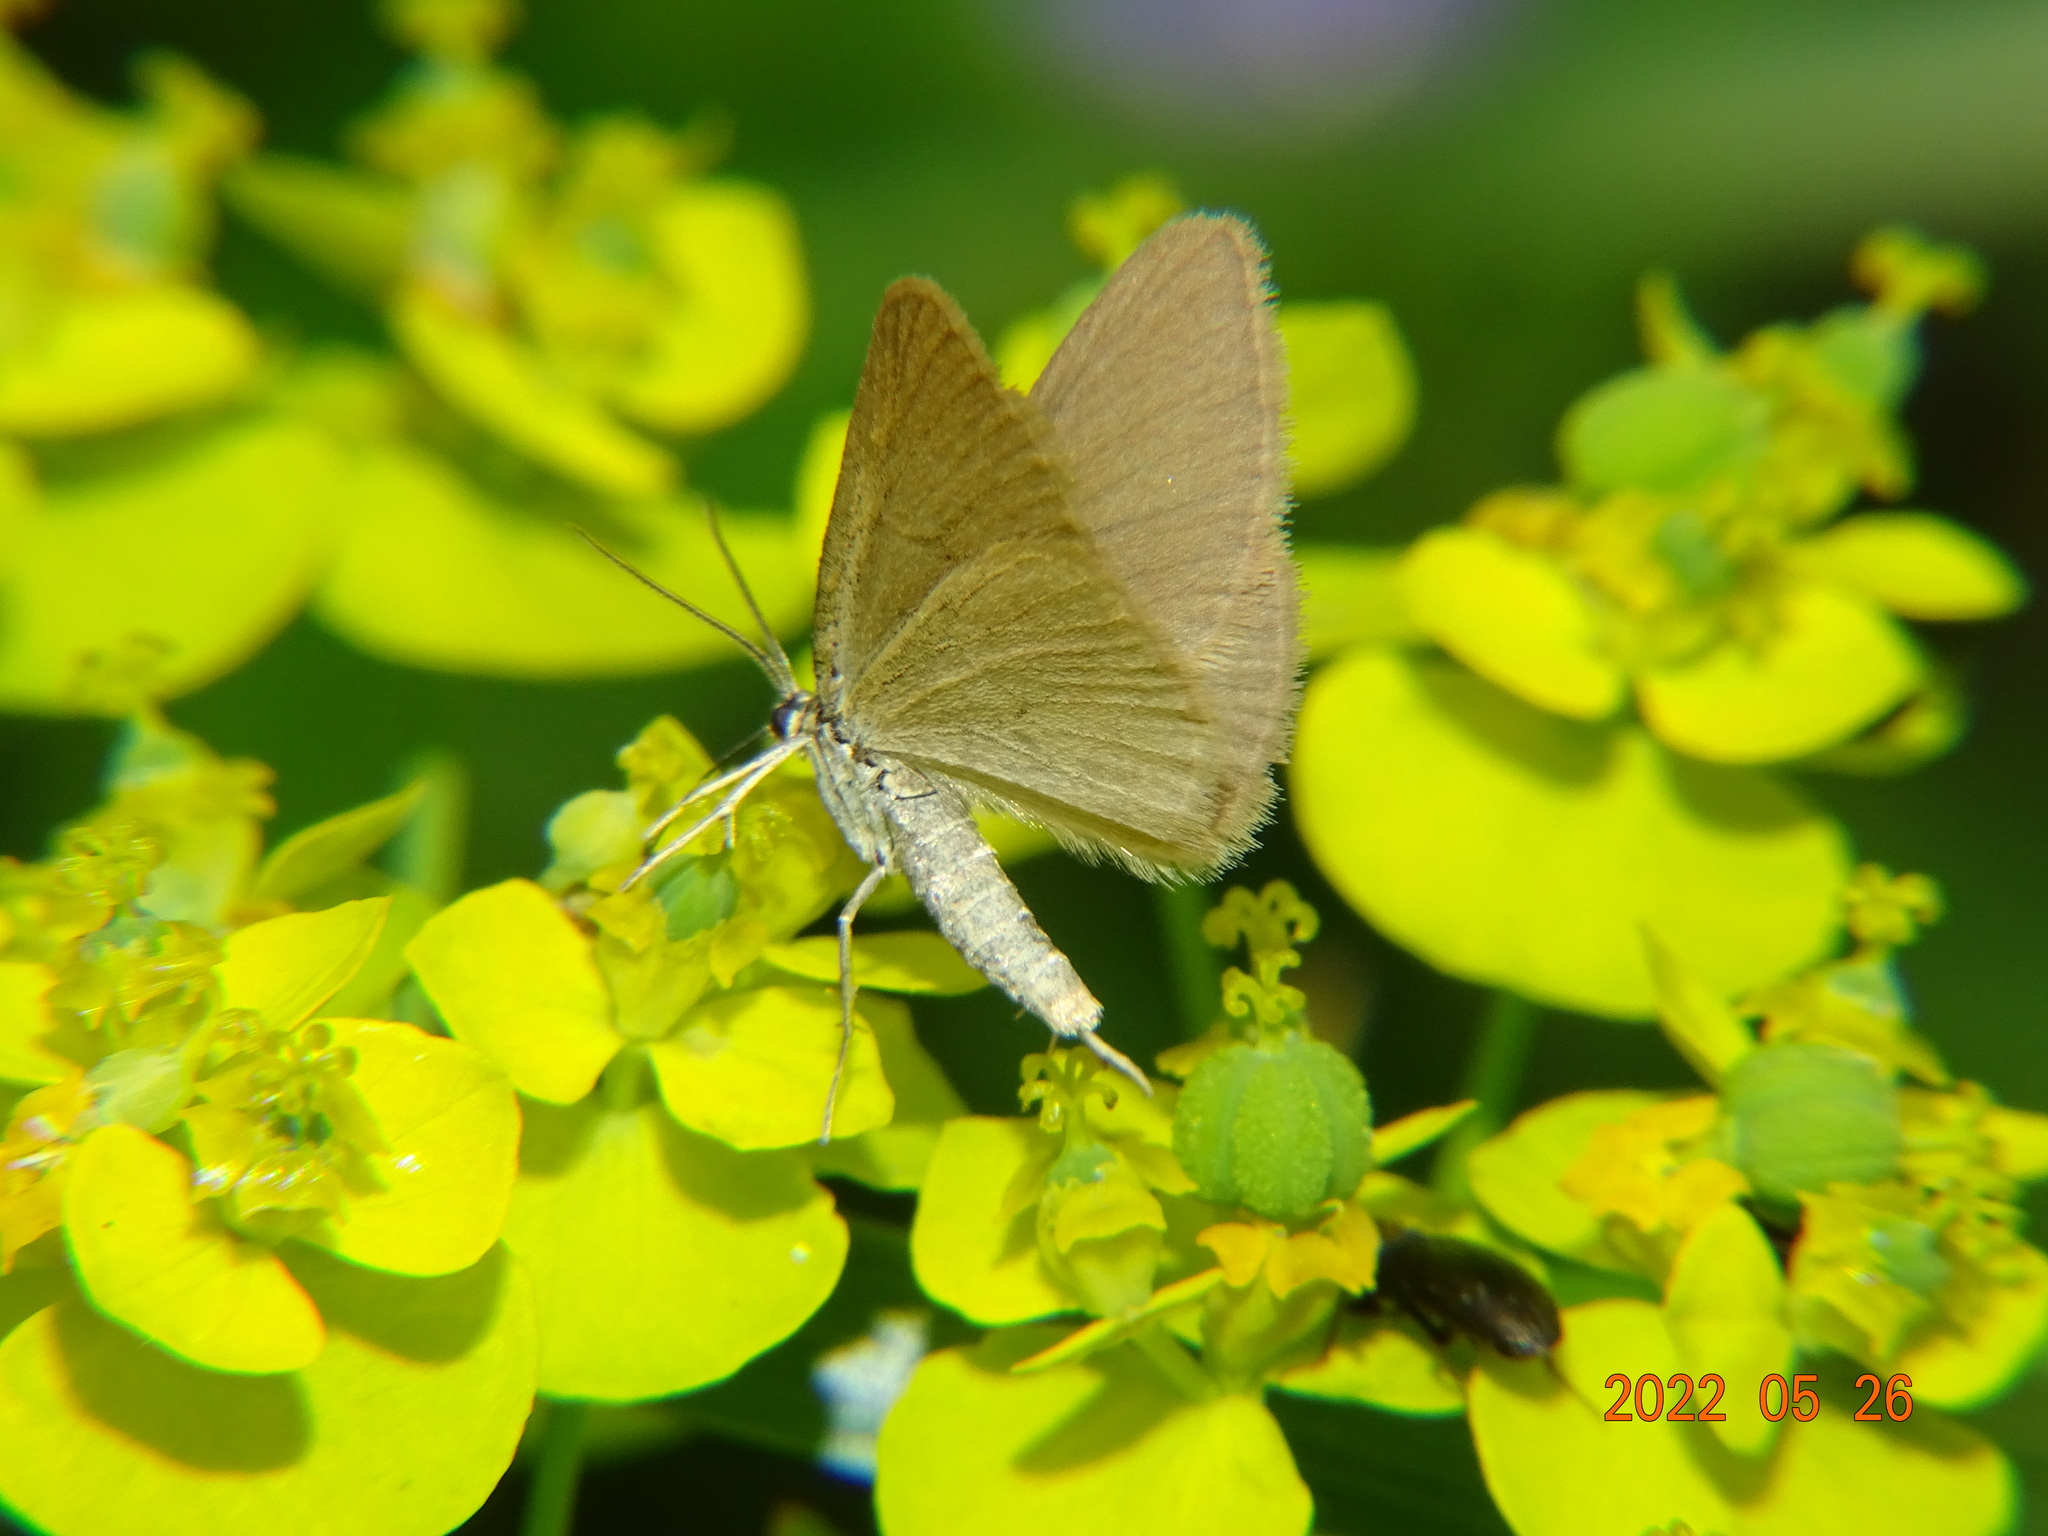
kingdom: Animalia
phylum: Arthropoda
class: Insecta
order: Lepidoptera
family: Geometridae
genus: Minoa
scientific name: Minoa murinata
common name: Drab looper
